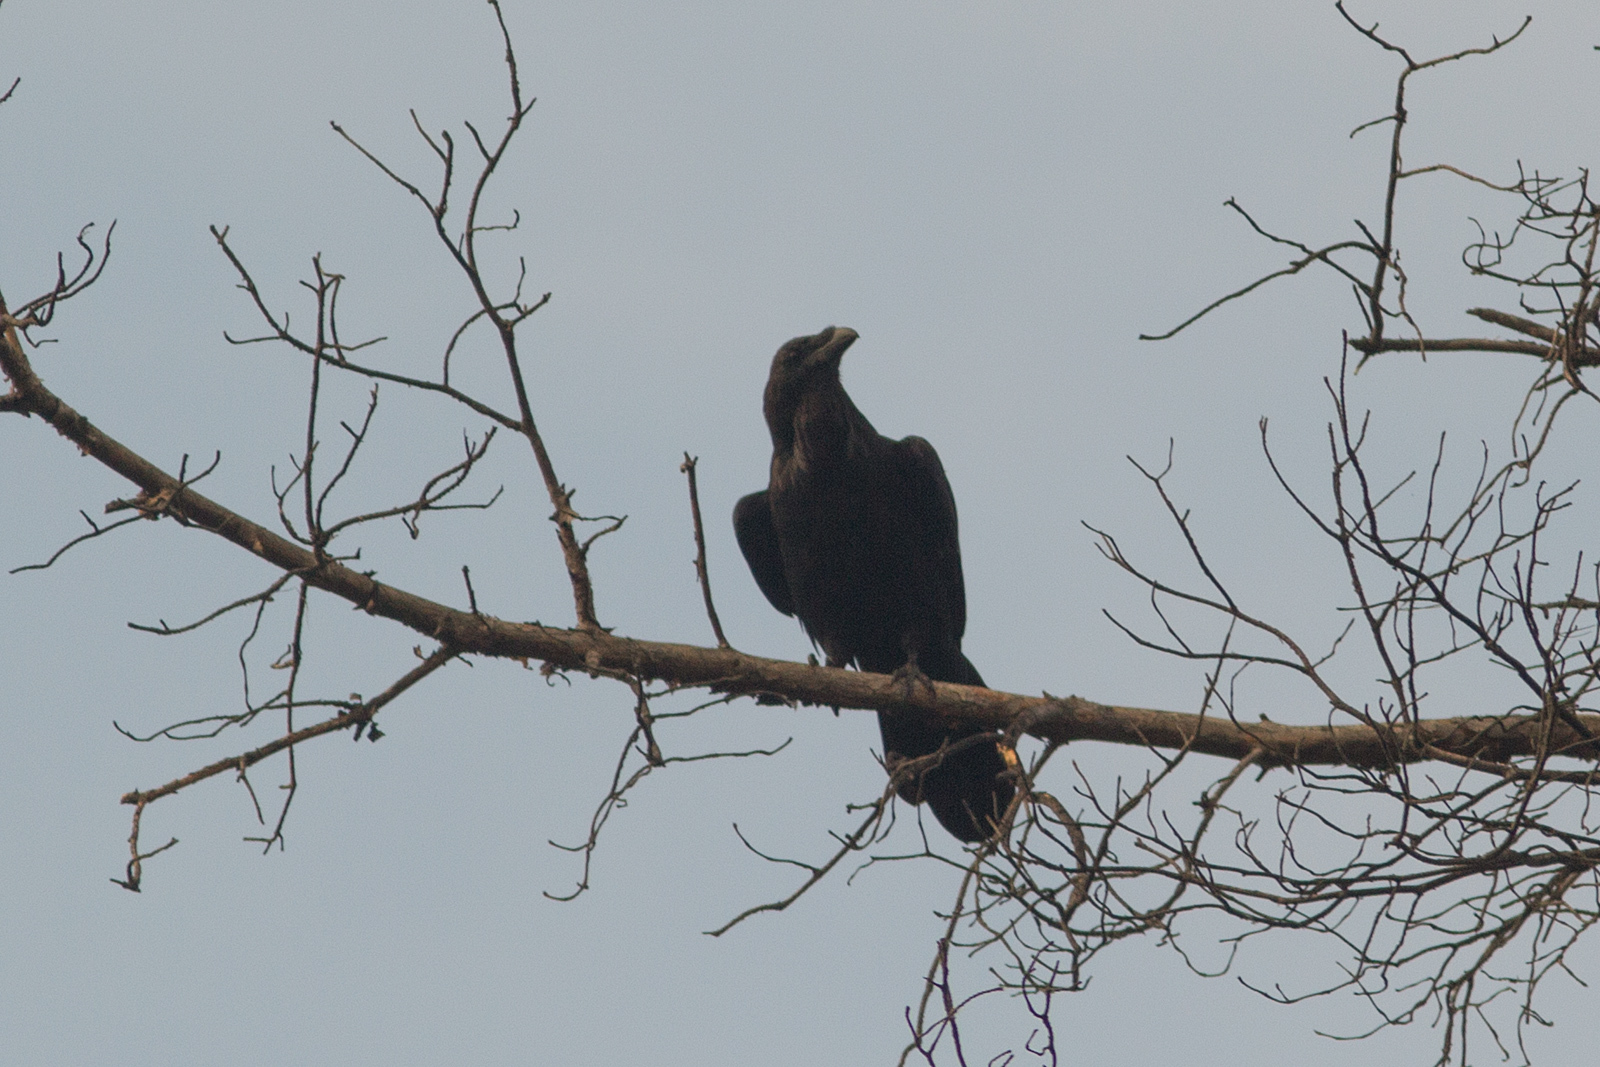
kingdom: Animalia
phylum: Chordata
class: Aves
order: Passeriformes
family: Corvidae
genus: Corvus
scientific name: Corvus corax
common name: Common raven
